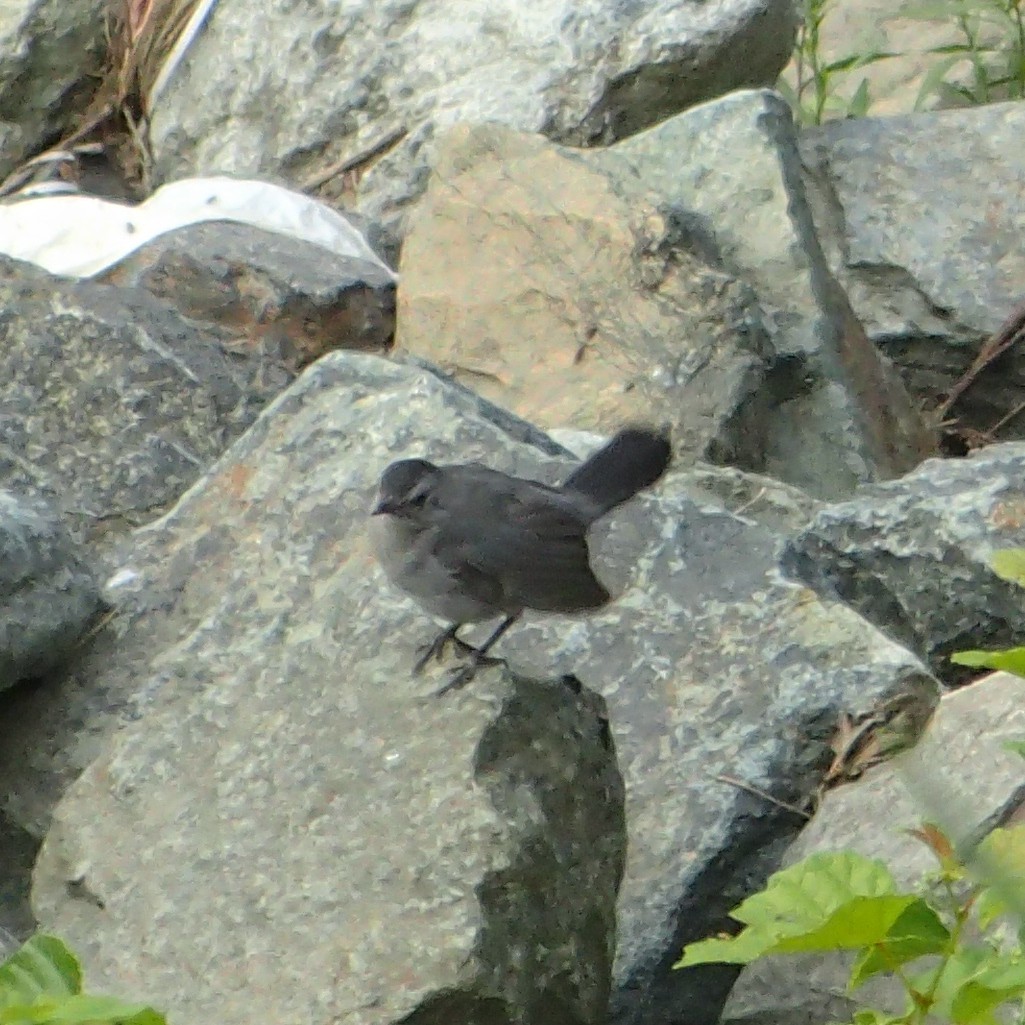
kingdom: Animalia
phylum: Chordata
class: Aves
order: Passeriformes
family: Mimidae
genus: Dumetella
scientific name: Dumetella carolinensis
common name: Gray catbird
